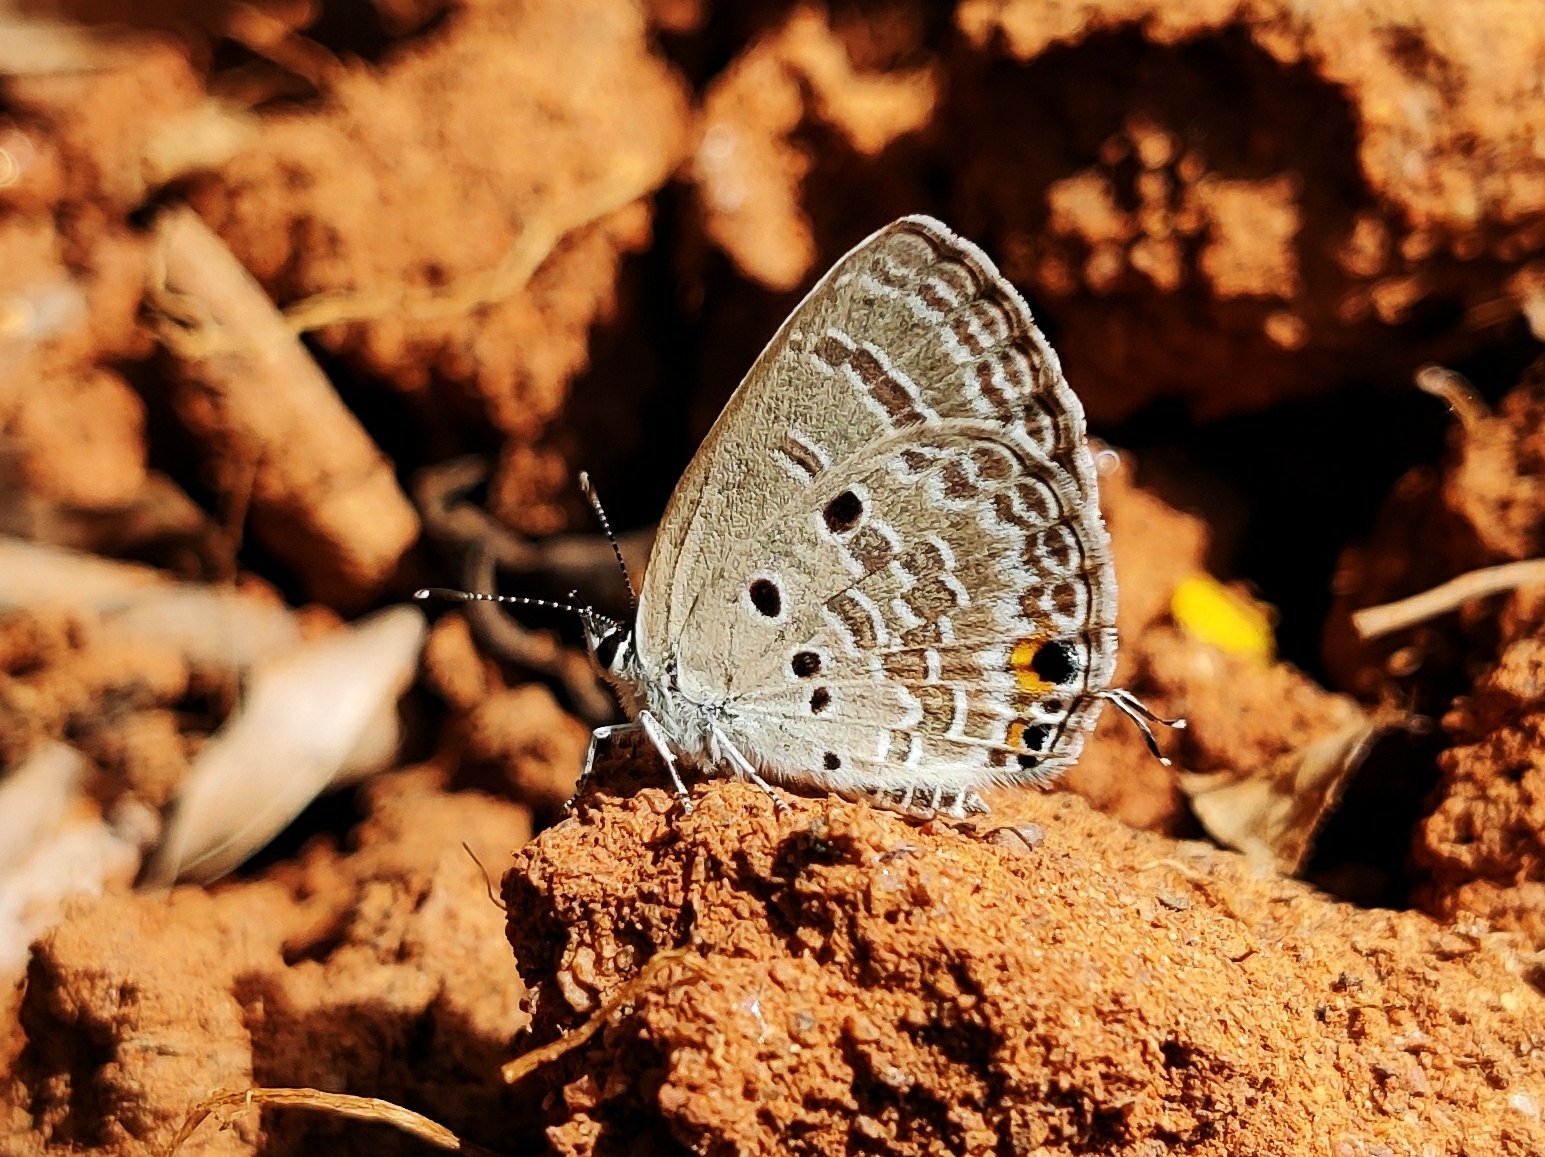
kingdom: Animalia
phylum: Arthropoda
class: Insecta
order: Lepidoptera
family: Lycaenidae
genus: Luthrodes
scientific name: Luthrodes pandava
